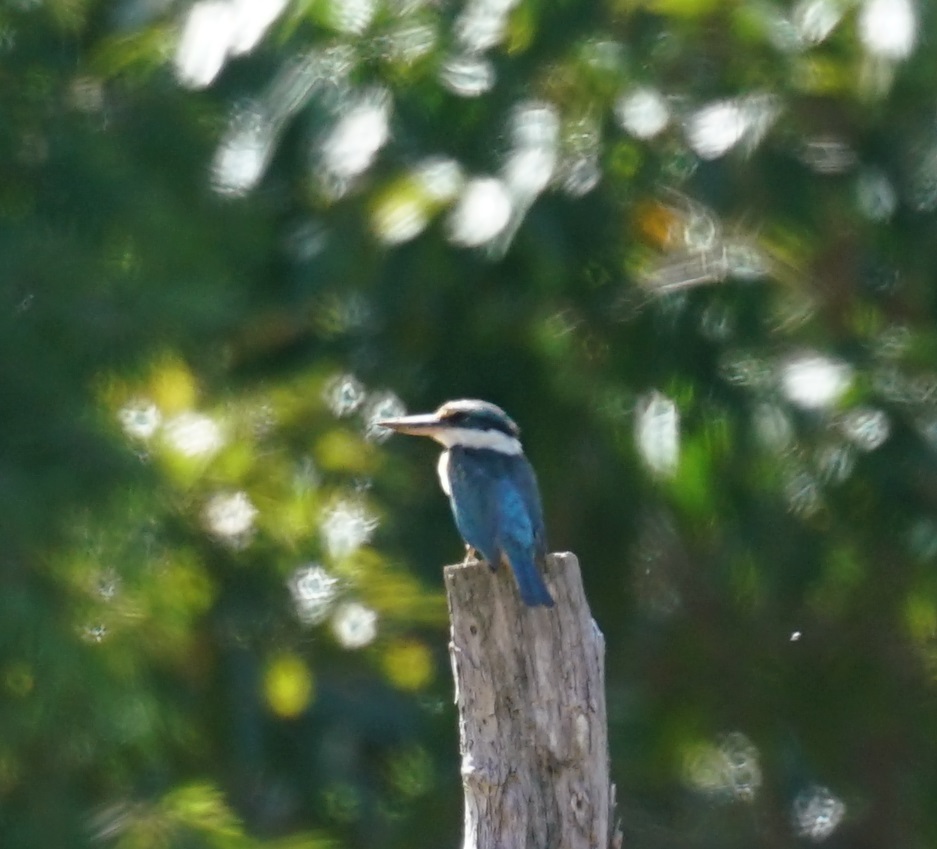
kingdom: Animalia
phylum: Chordata
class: Aves
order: Coraciiformes
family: Alcedinidae
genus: Todiramphus
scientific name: Todiramphus sanctus
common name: Sacred kingfisher
